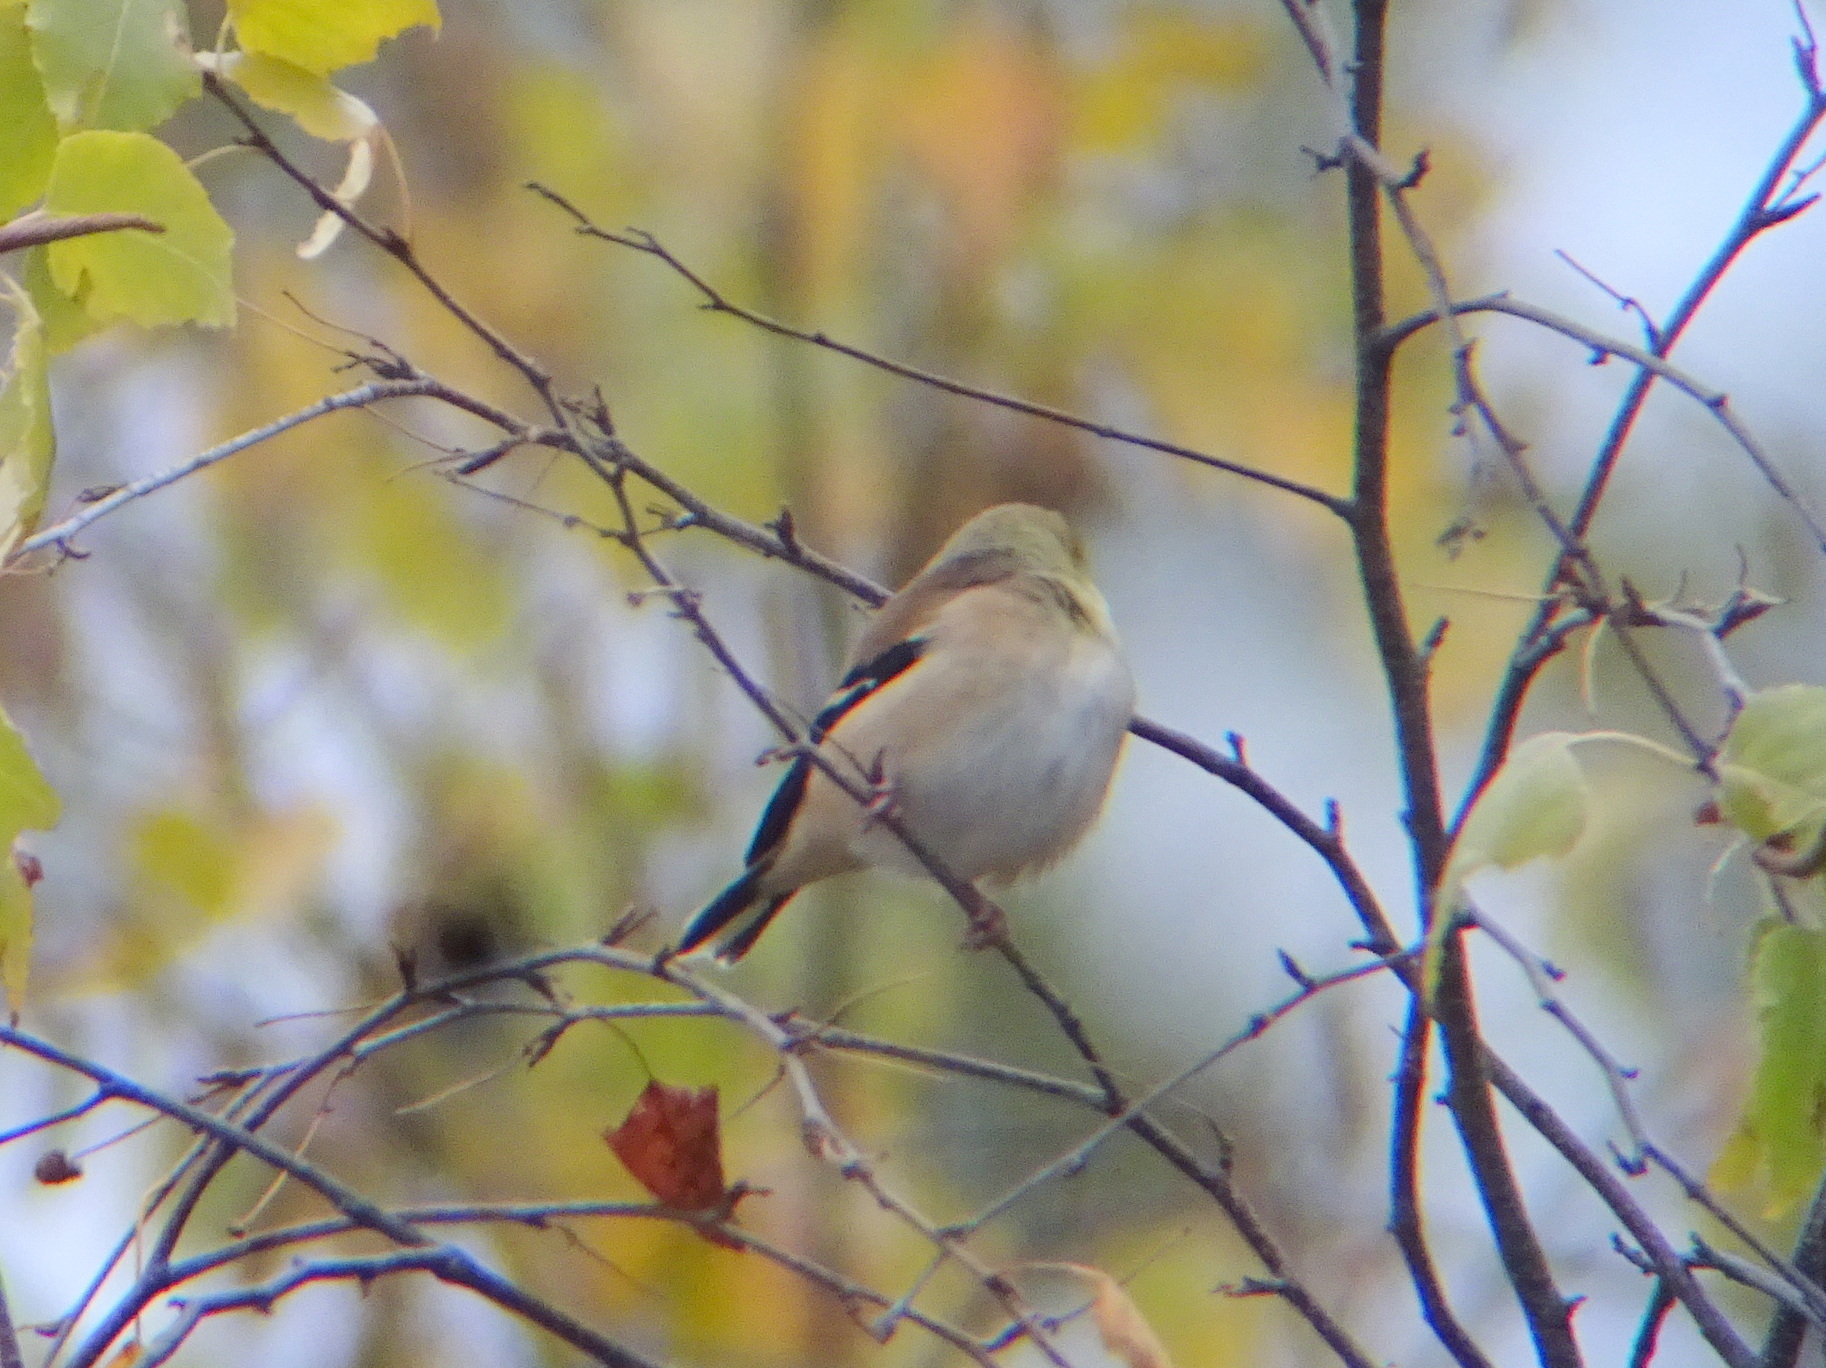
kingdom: Animalia
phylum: Chordata
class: Aves
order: Passeriformes
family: Fringillidae
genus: Spinus
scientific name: Spinus tristis
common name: American goldfinch
